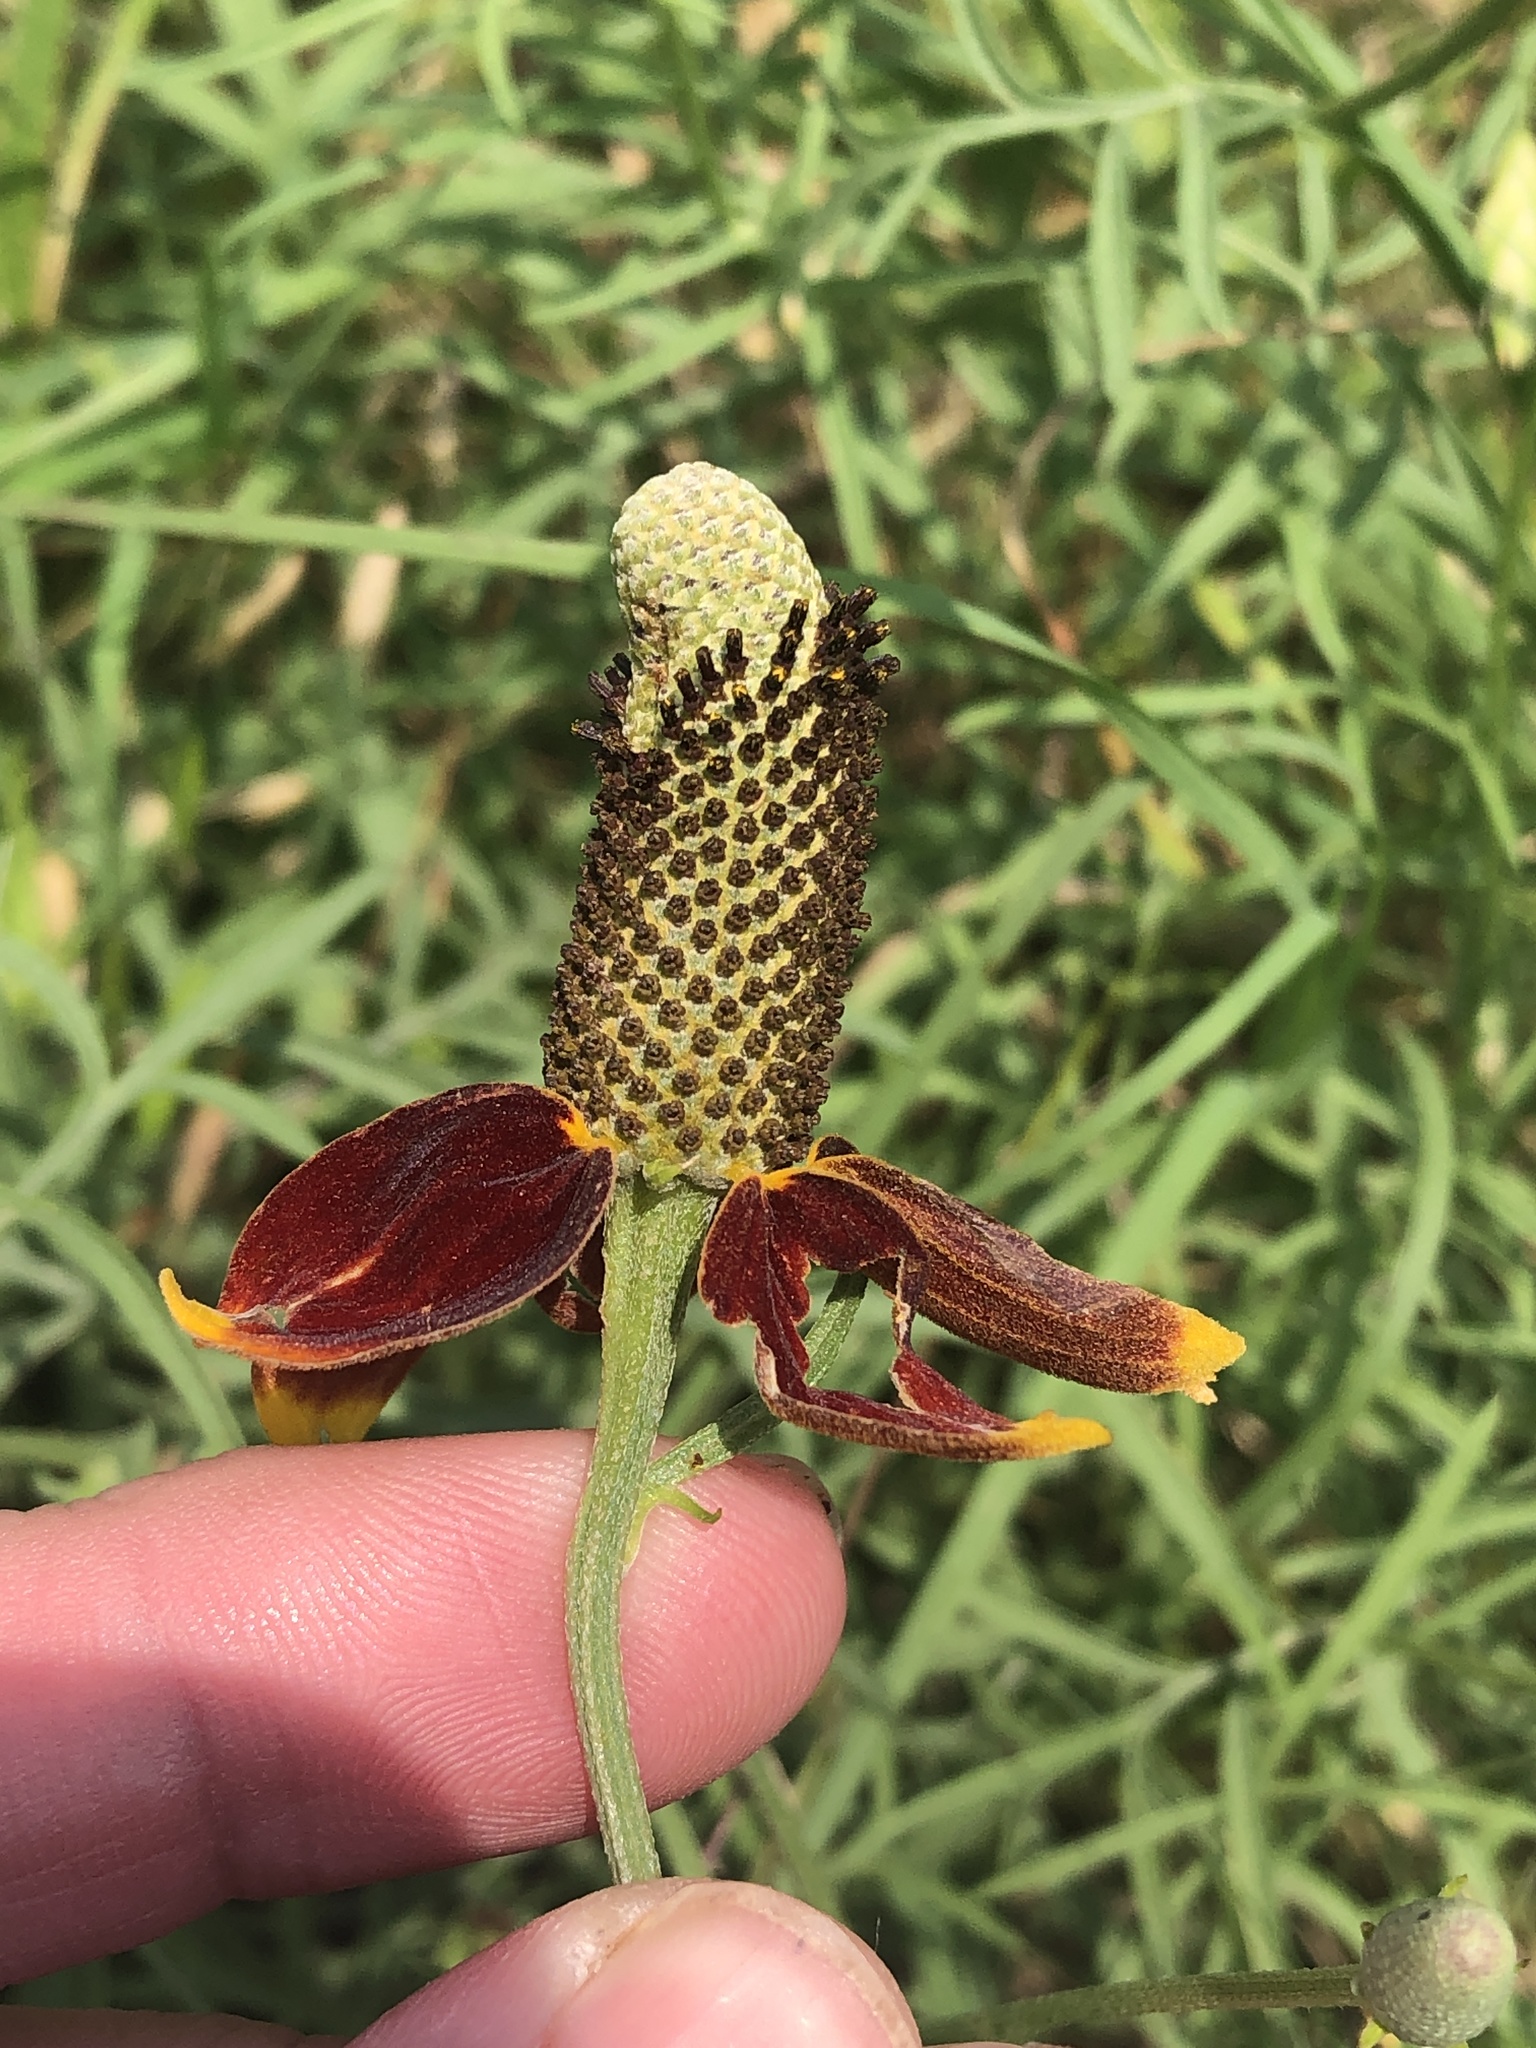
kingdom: Plantae
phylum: Tracheophyta
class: Magnoliopsida
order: Asterales
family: Asteraceae
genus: Ratibida
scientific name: Ratibida columnifera
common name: Prairie coneflower
